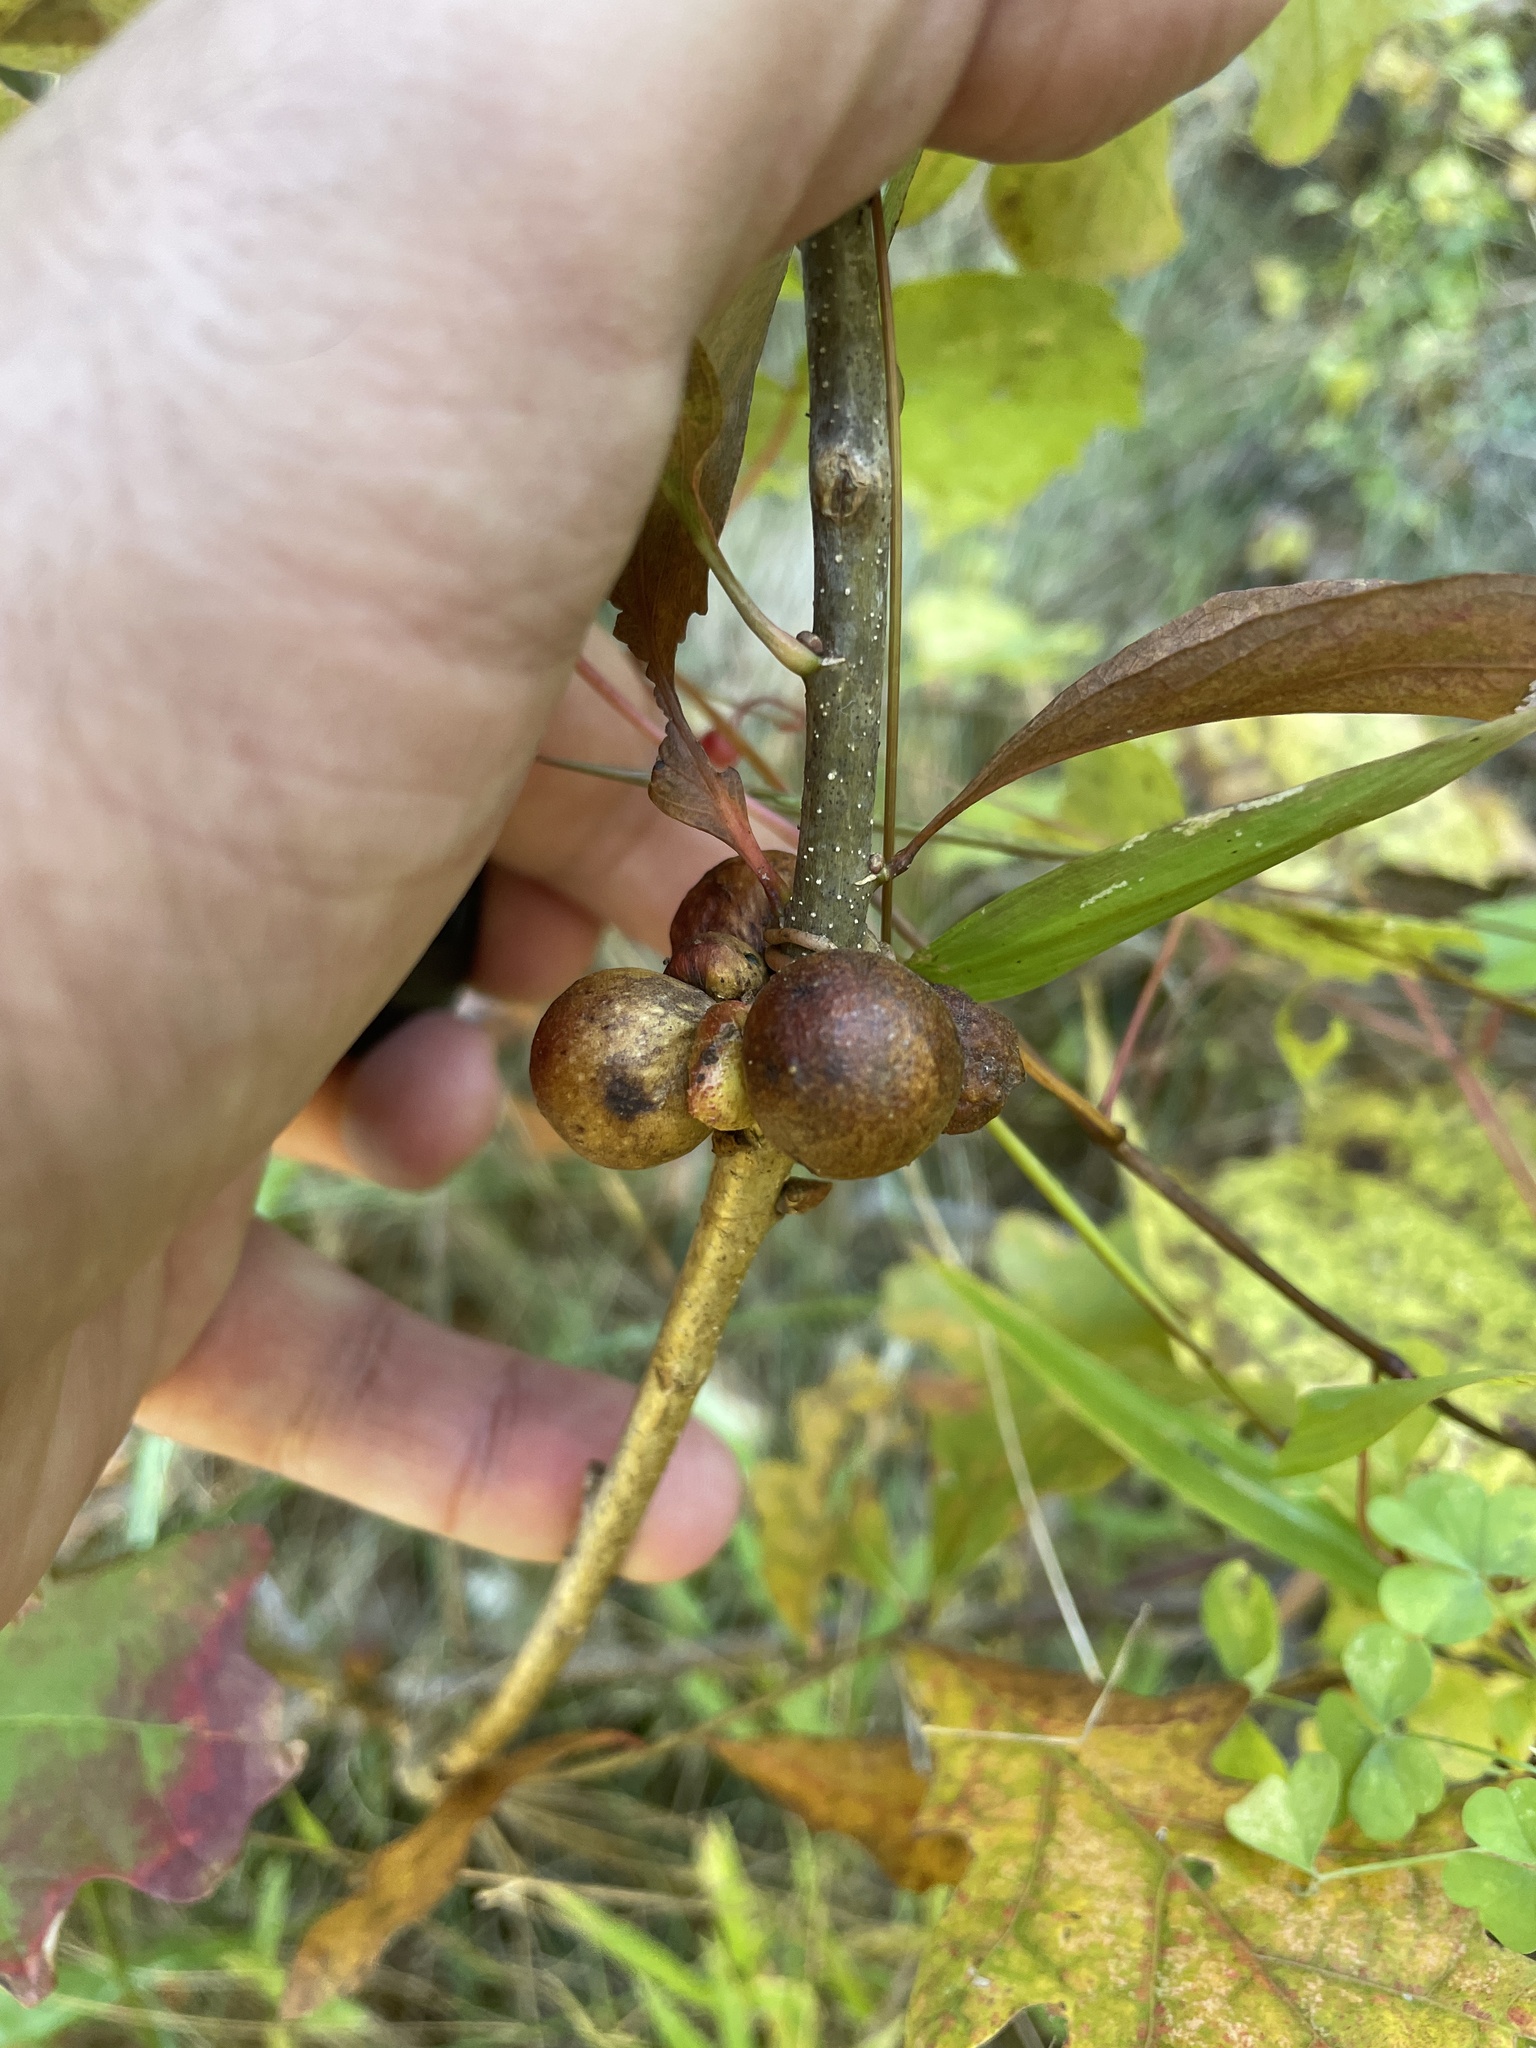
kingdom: Animalia
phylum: Arthropoda
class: Insecta
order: Hymenoptera
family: Cynipidae
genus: Disholcaspis
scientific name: Disholcaspis quercusglobulus
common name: Round bullet gall wasp
